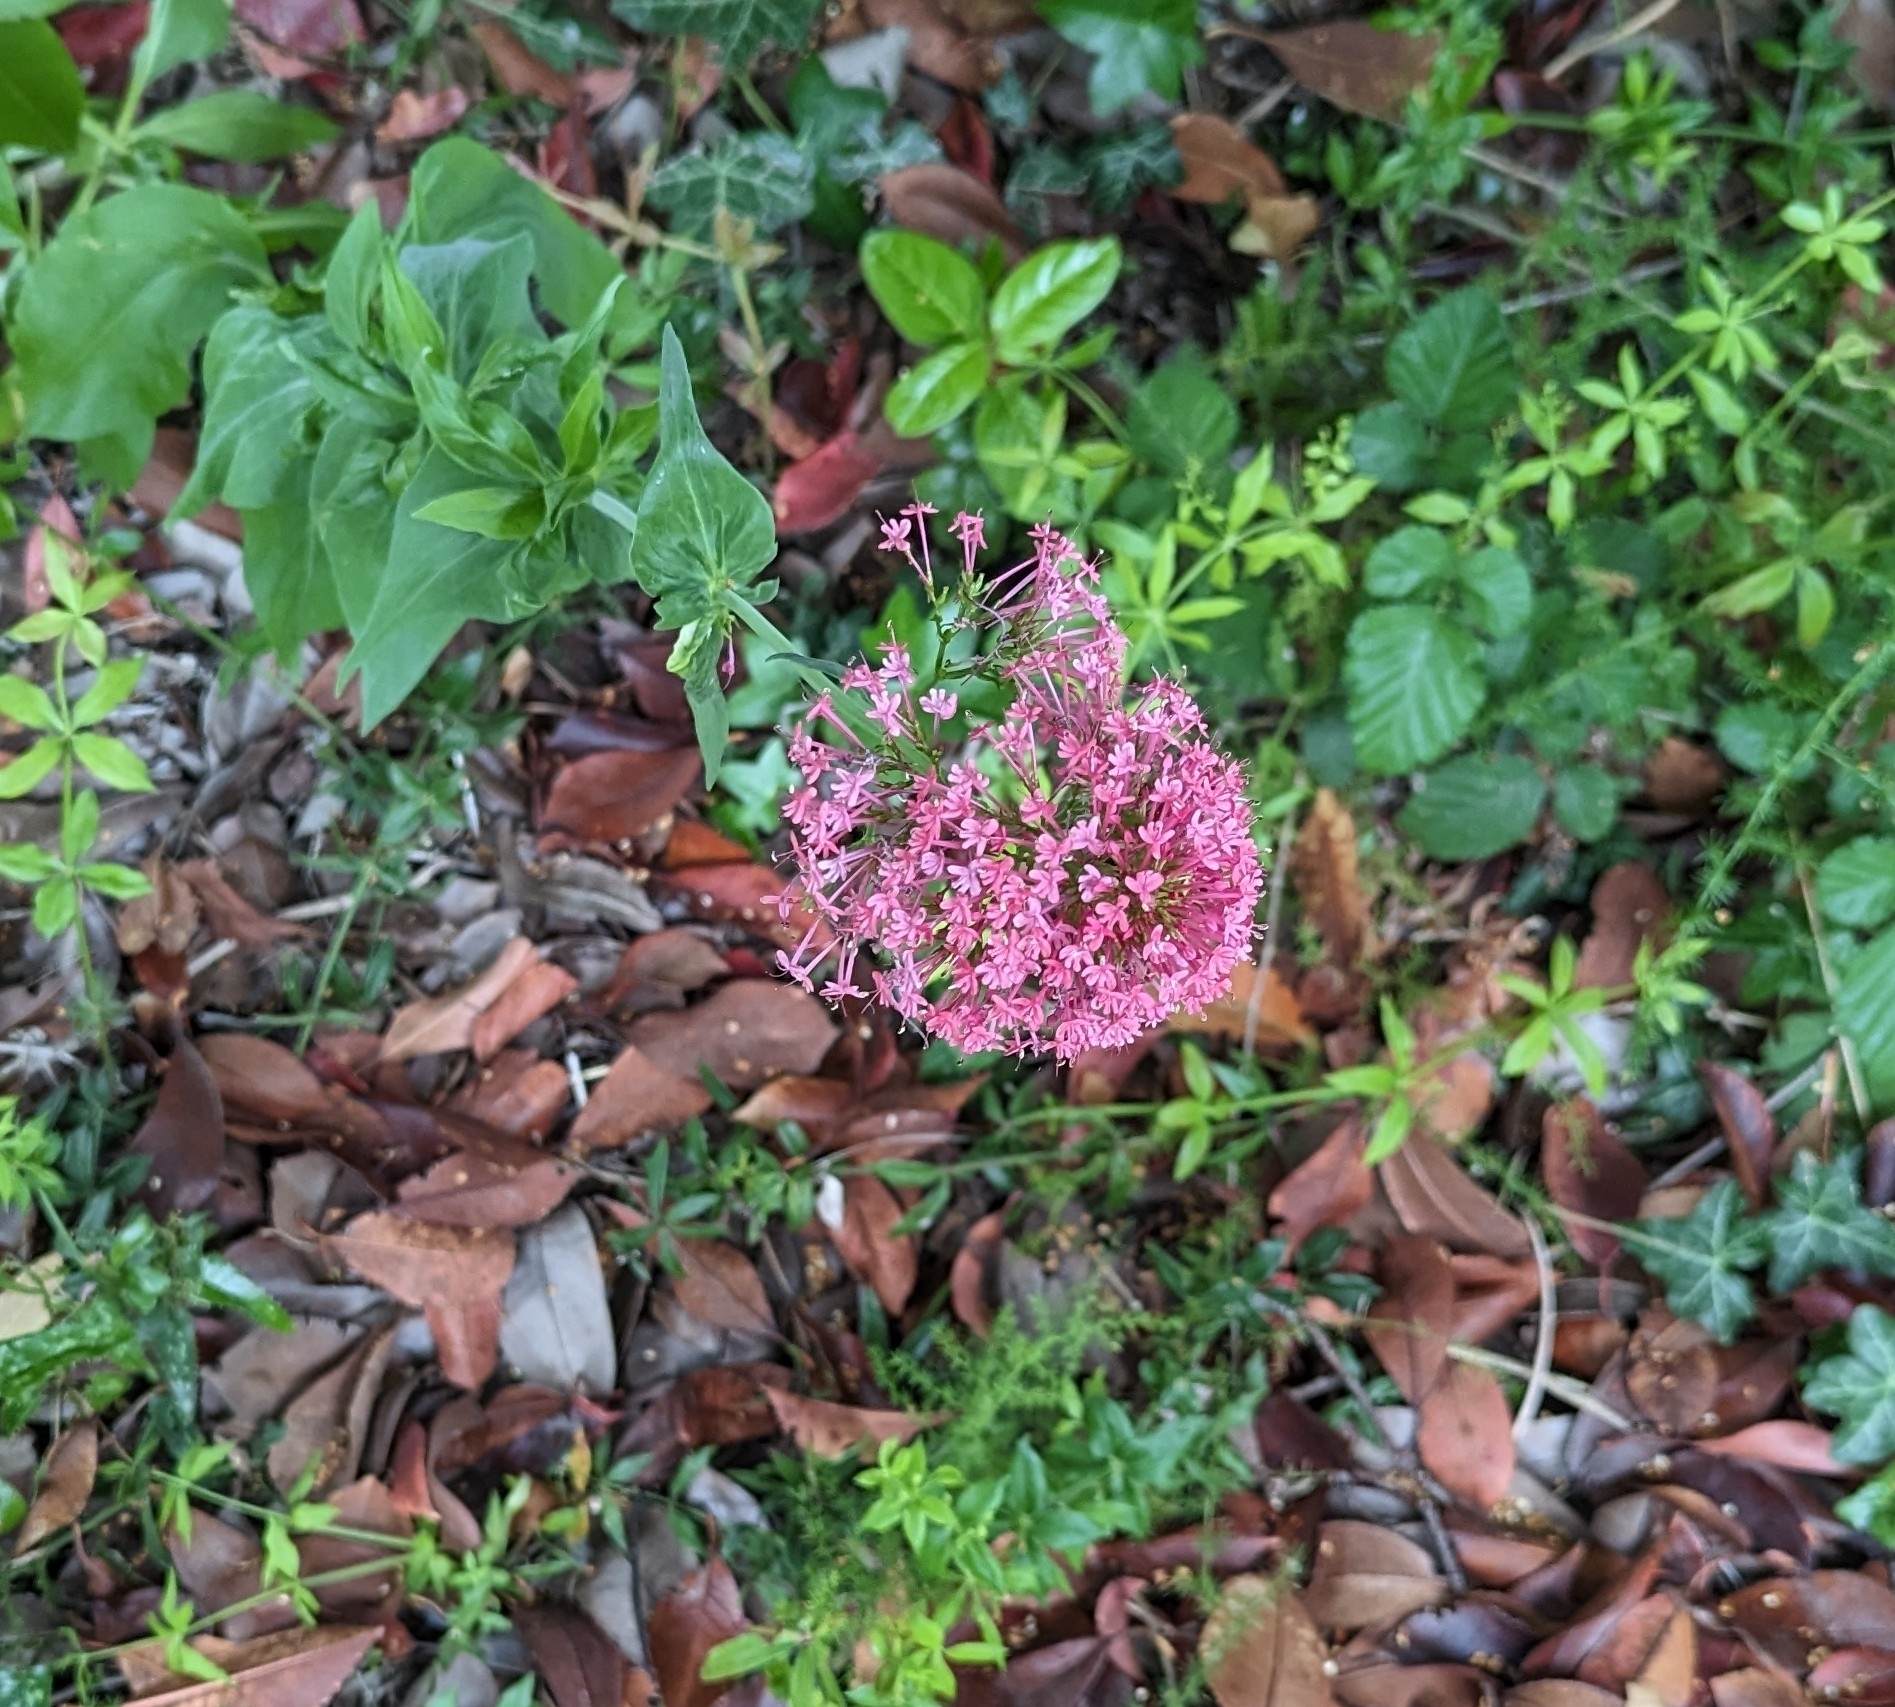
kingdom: Plantae
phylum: Tracheophyta
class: Magnoliopsida
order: Dipsacales
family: Caprifoliaceae
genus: Centranthus
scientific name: Centranthus ruber
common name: Red valerian
